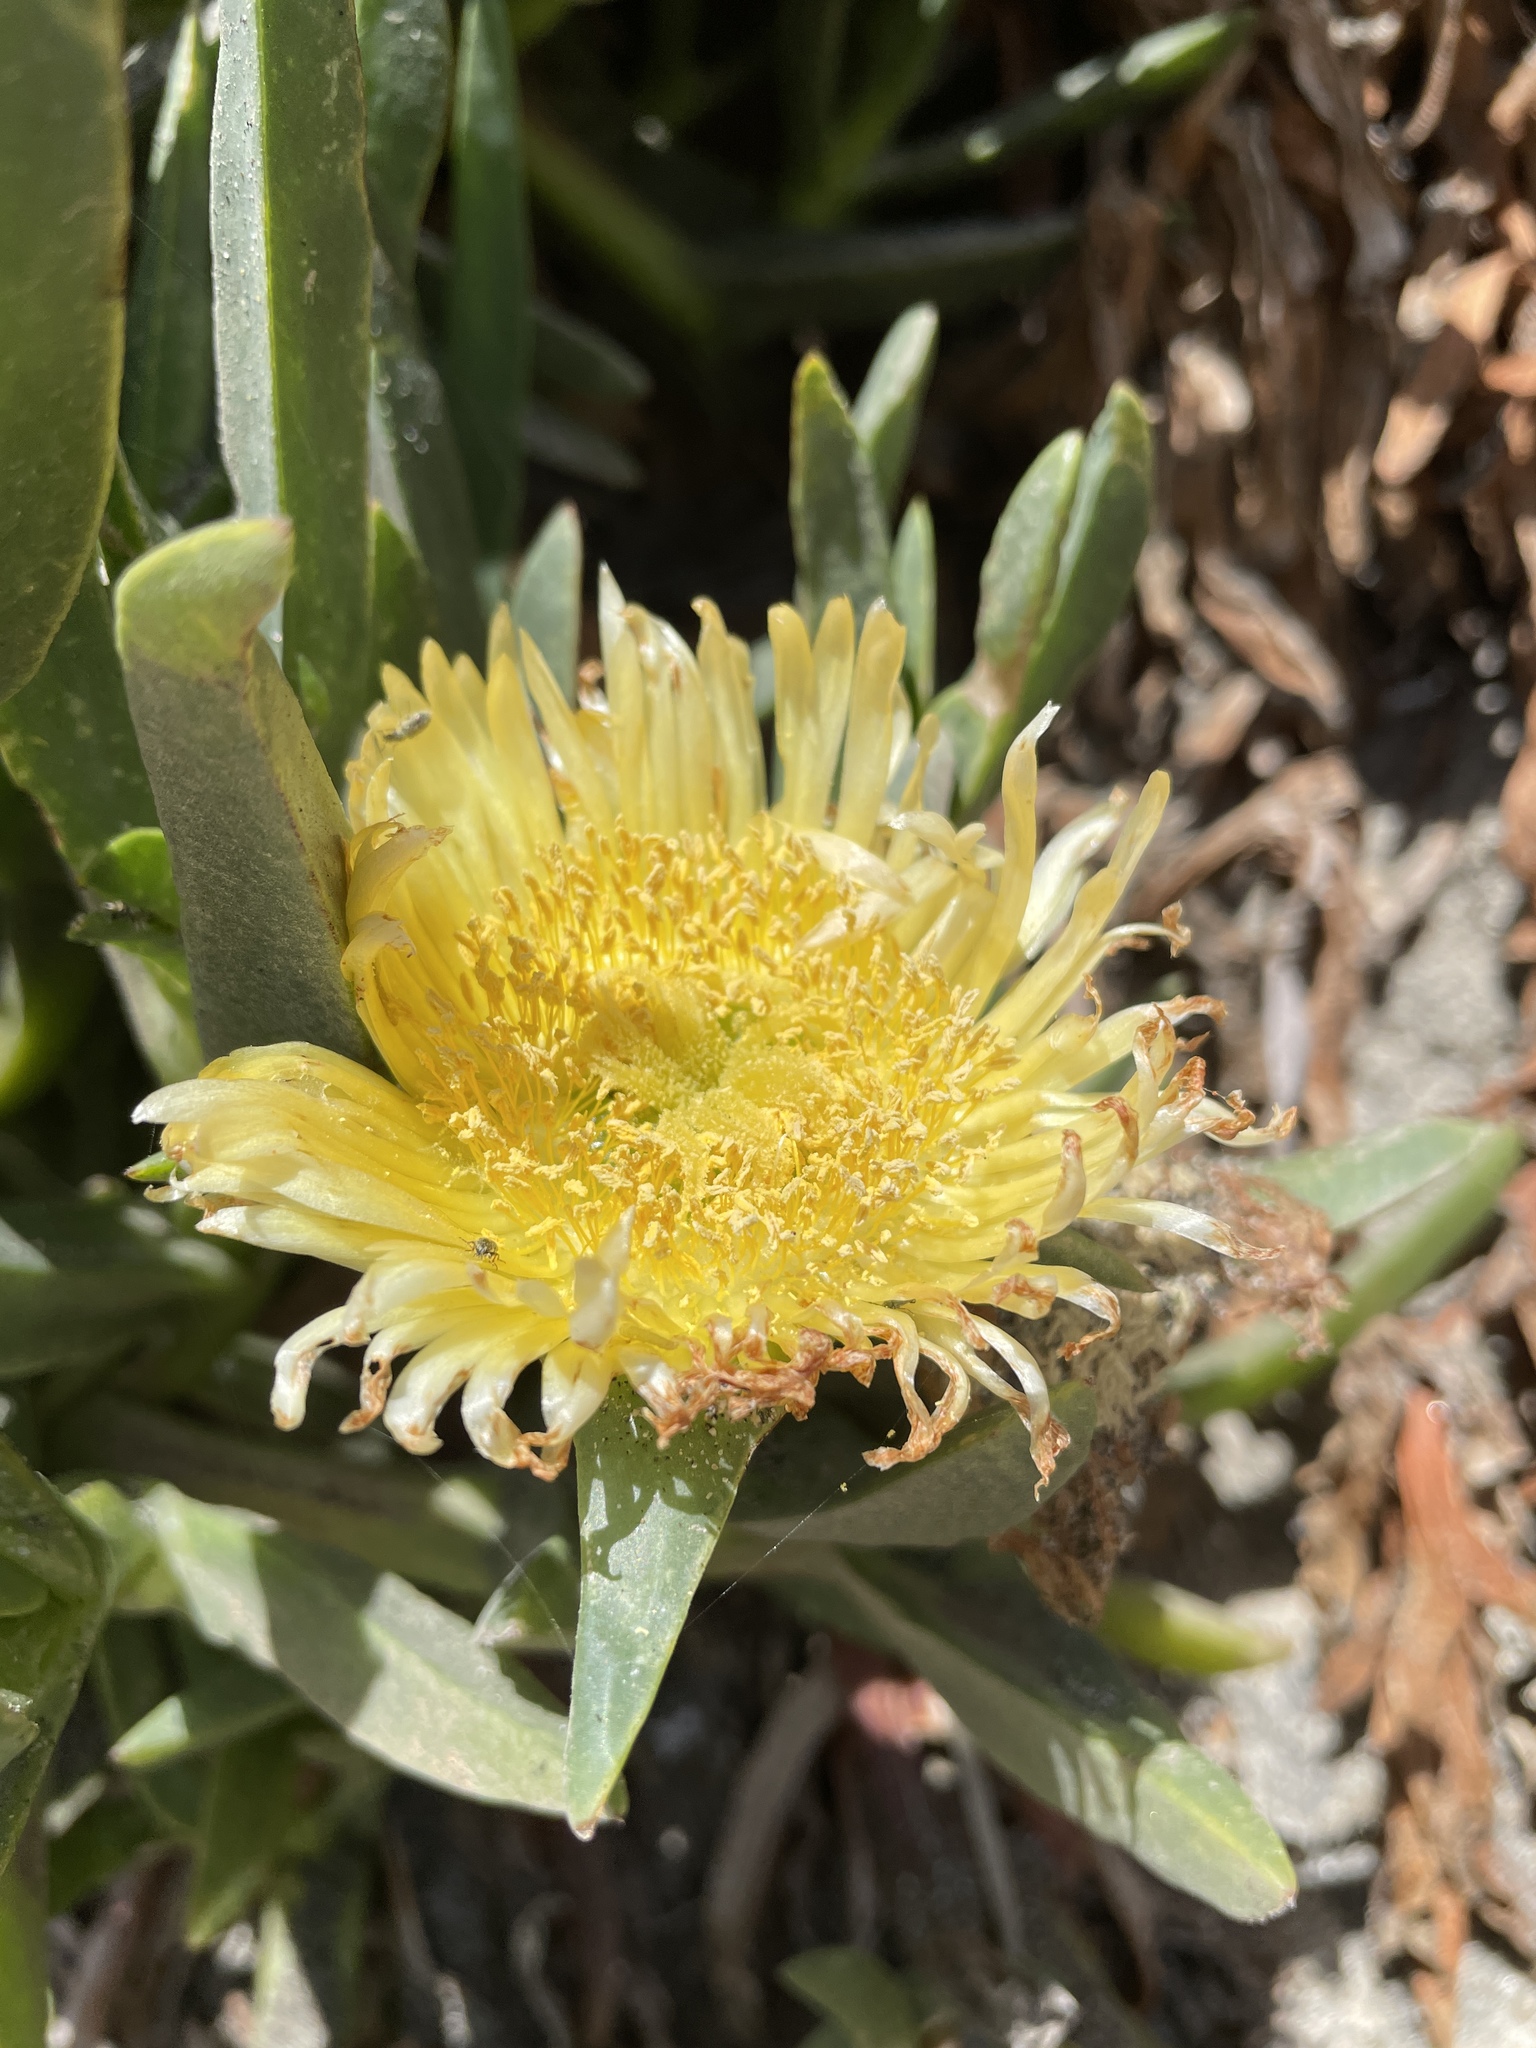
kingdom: Plantae
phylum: Tracheophyta
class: Magnoliopsida
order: Caryophyllales
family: Aizoaceae
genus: Carpobrotus
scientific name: Carpobrotus edulis
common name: Hottentot-fig
